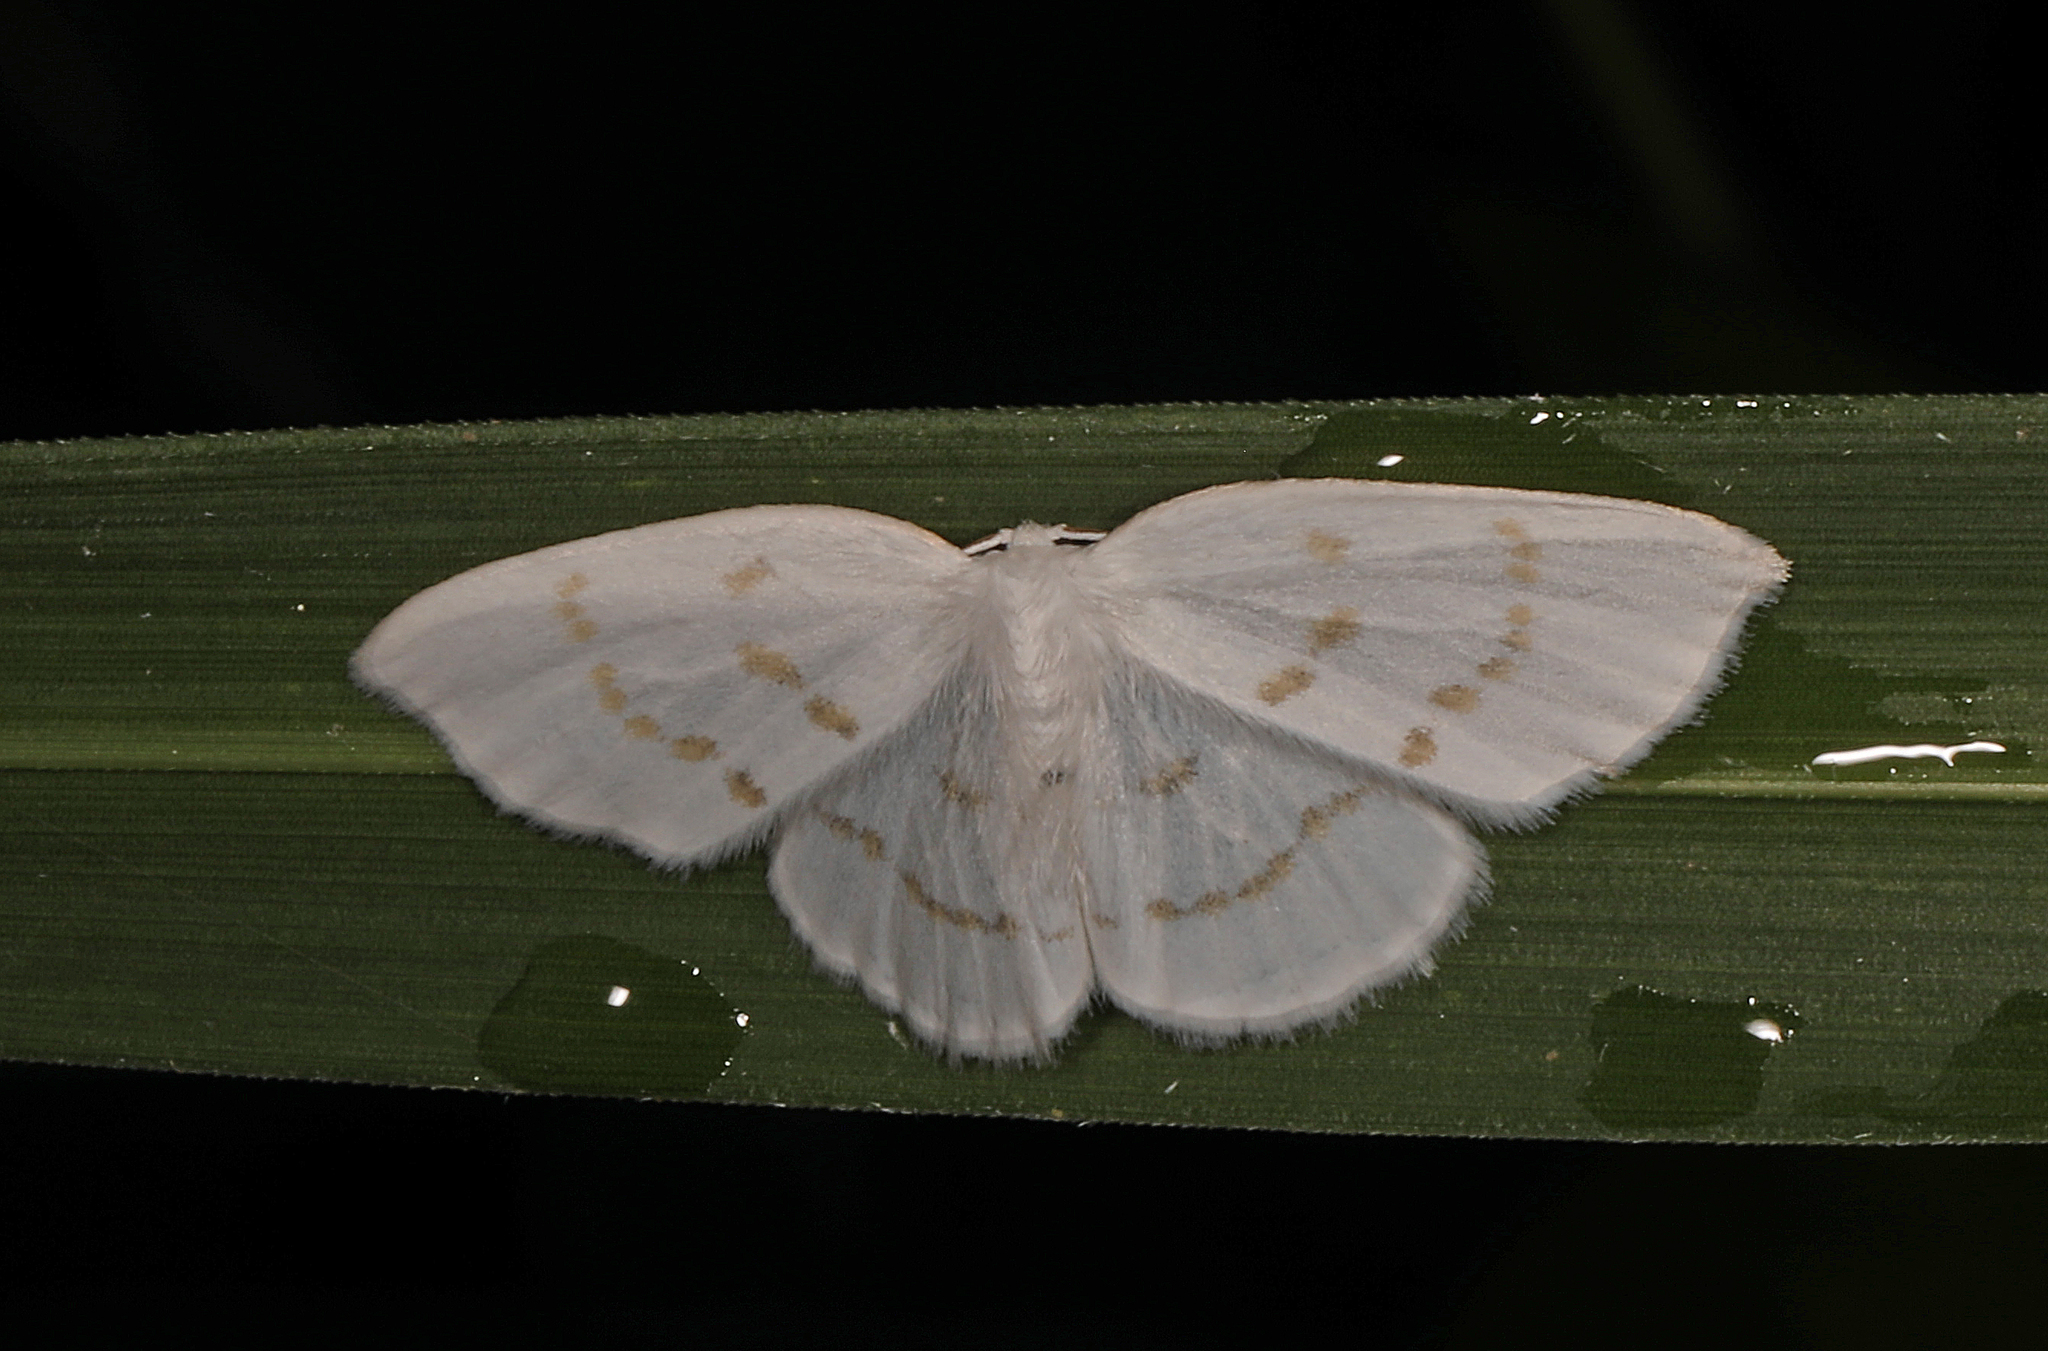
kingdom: Animalia
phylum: Arthropoda
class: Insecta
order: Lepidoptera
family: Drepanidae
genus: Eudeilinia
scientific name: Eudeilinia herminiata
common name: Northern eudeilinea moth
